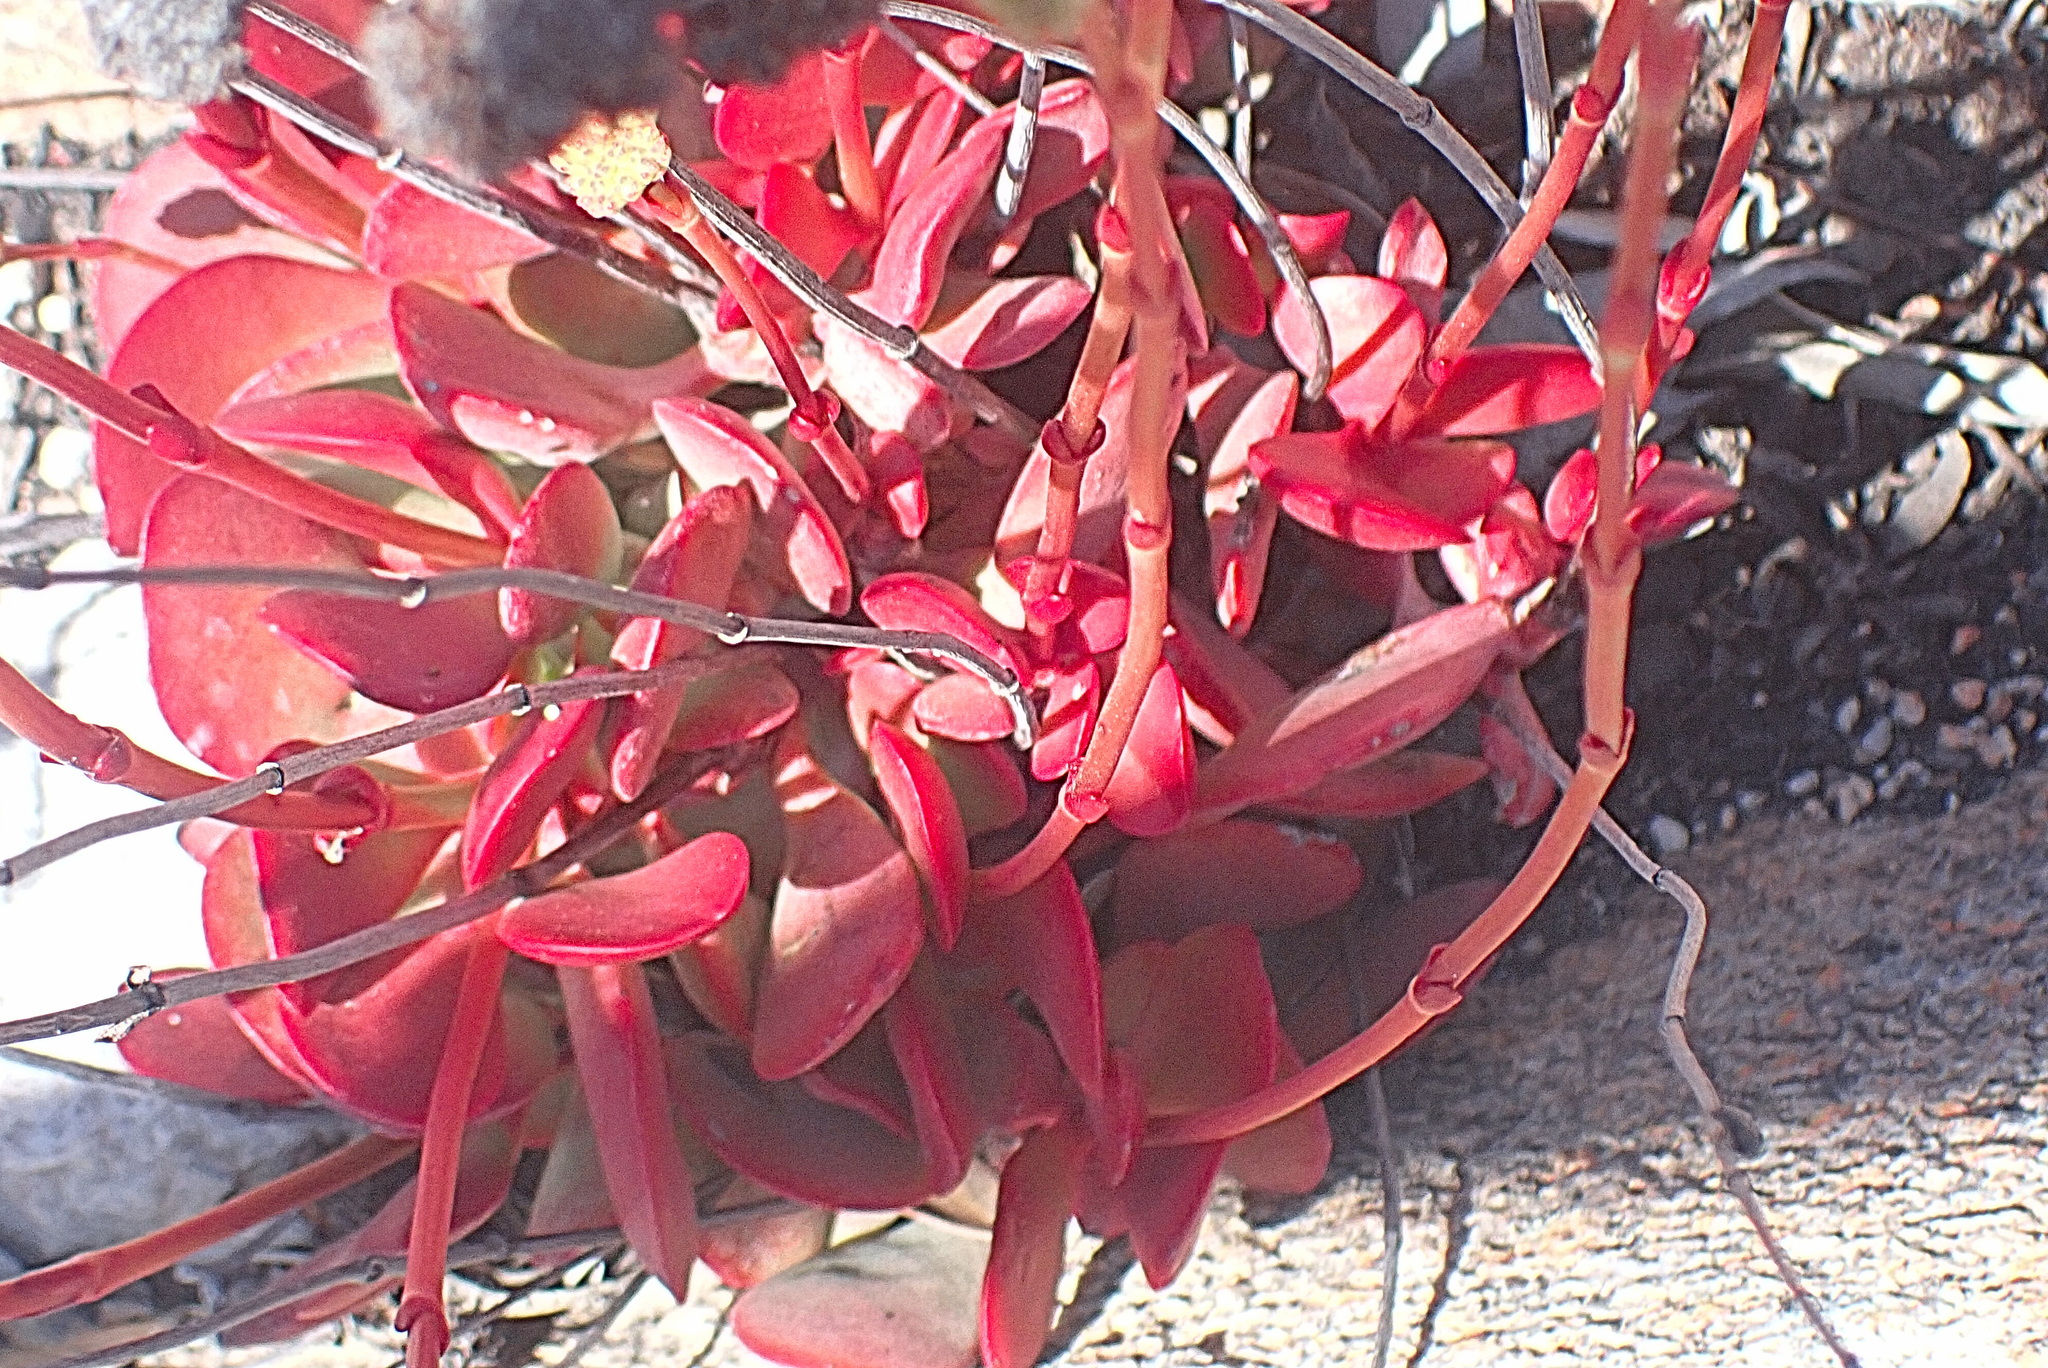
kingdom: Plantae
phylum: Tracheophyta
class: Magnoliopsida
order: Saxifragales
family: Crassulaceae
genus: Crassula
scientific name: Crassula atropurpurea
